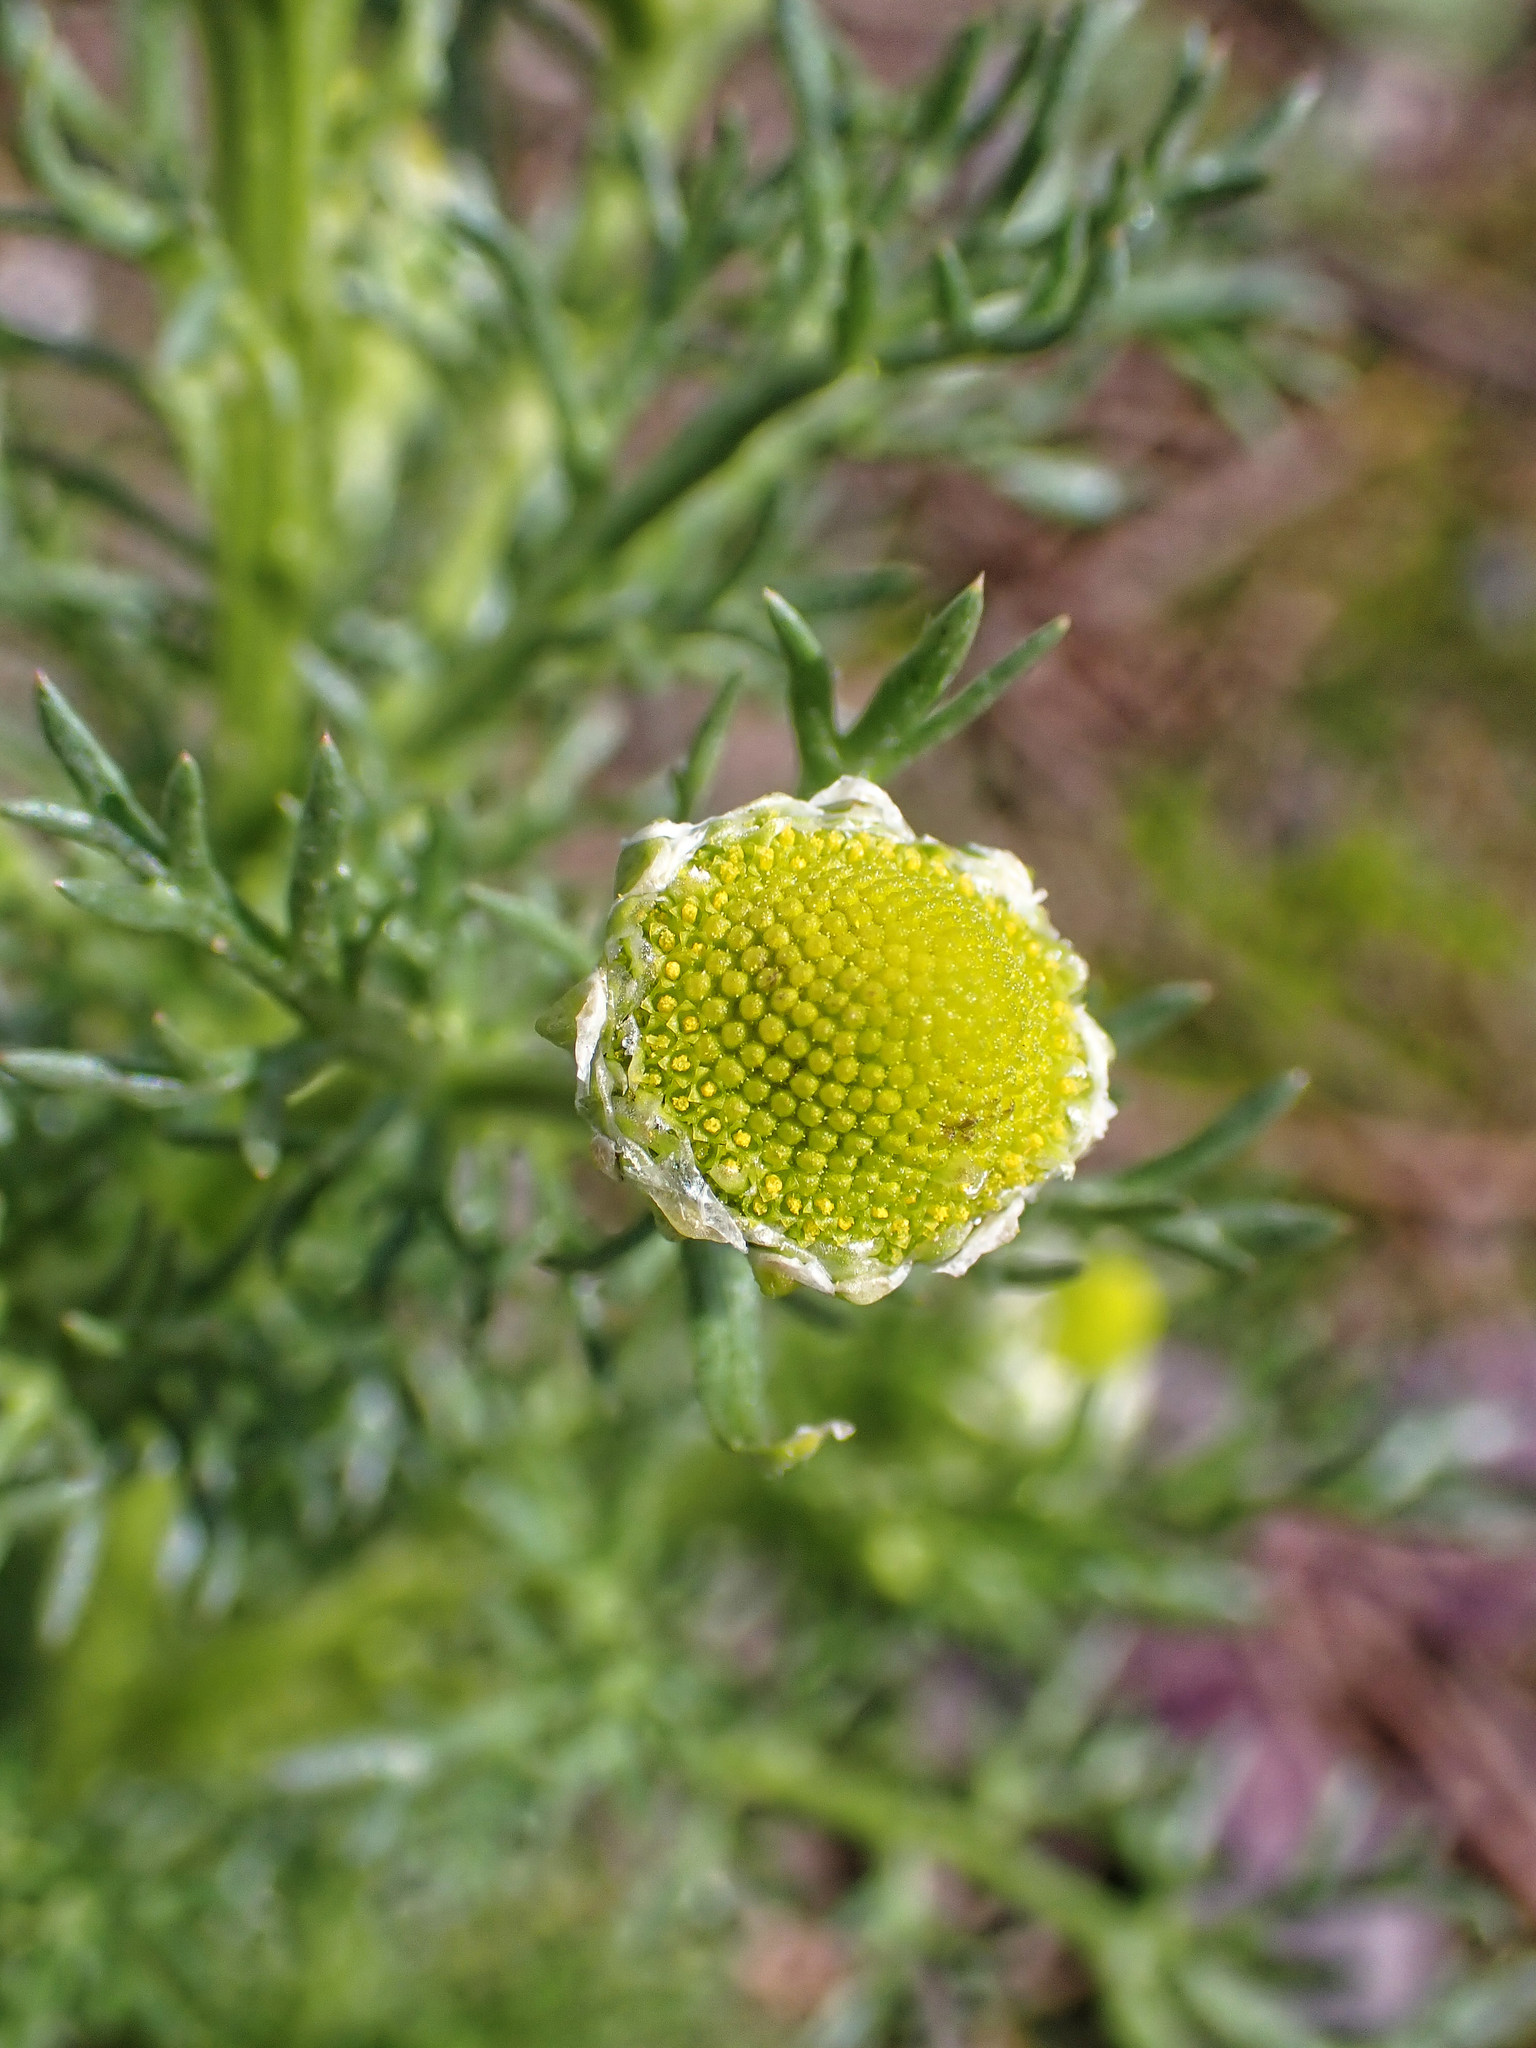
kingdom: Plantae
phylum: Tracheophyta
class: Magnoliopsida
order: Asterales
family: Asteraceae
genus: Matricaria
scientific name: Matricaria discoidea
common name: Disc mayweed
